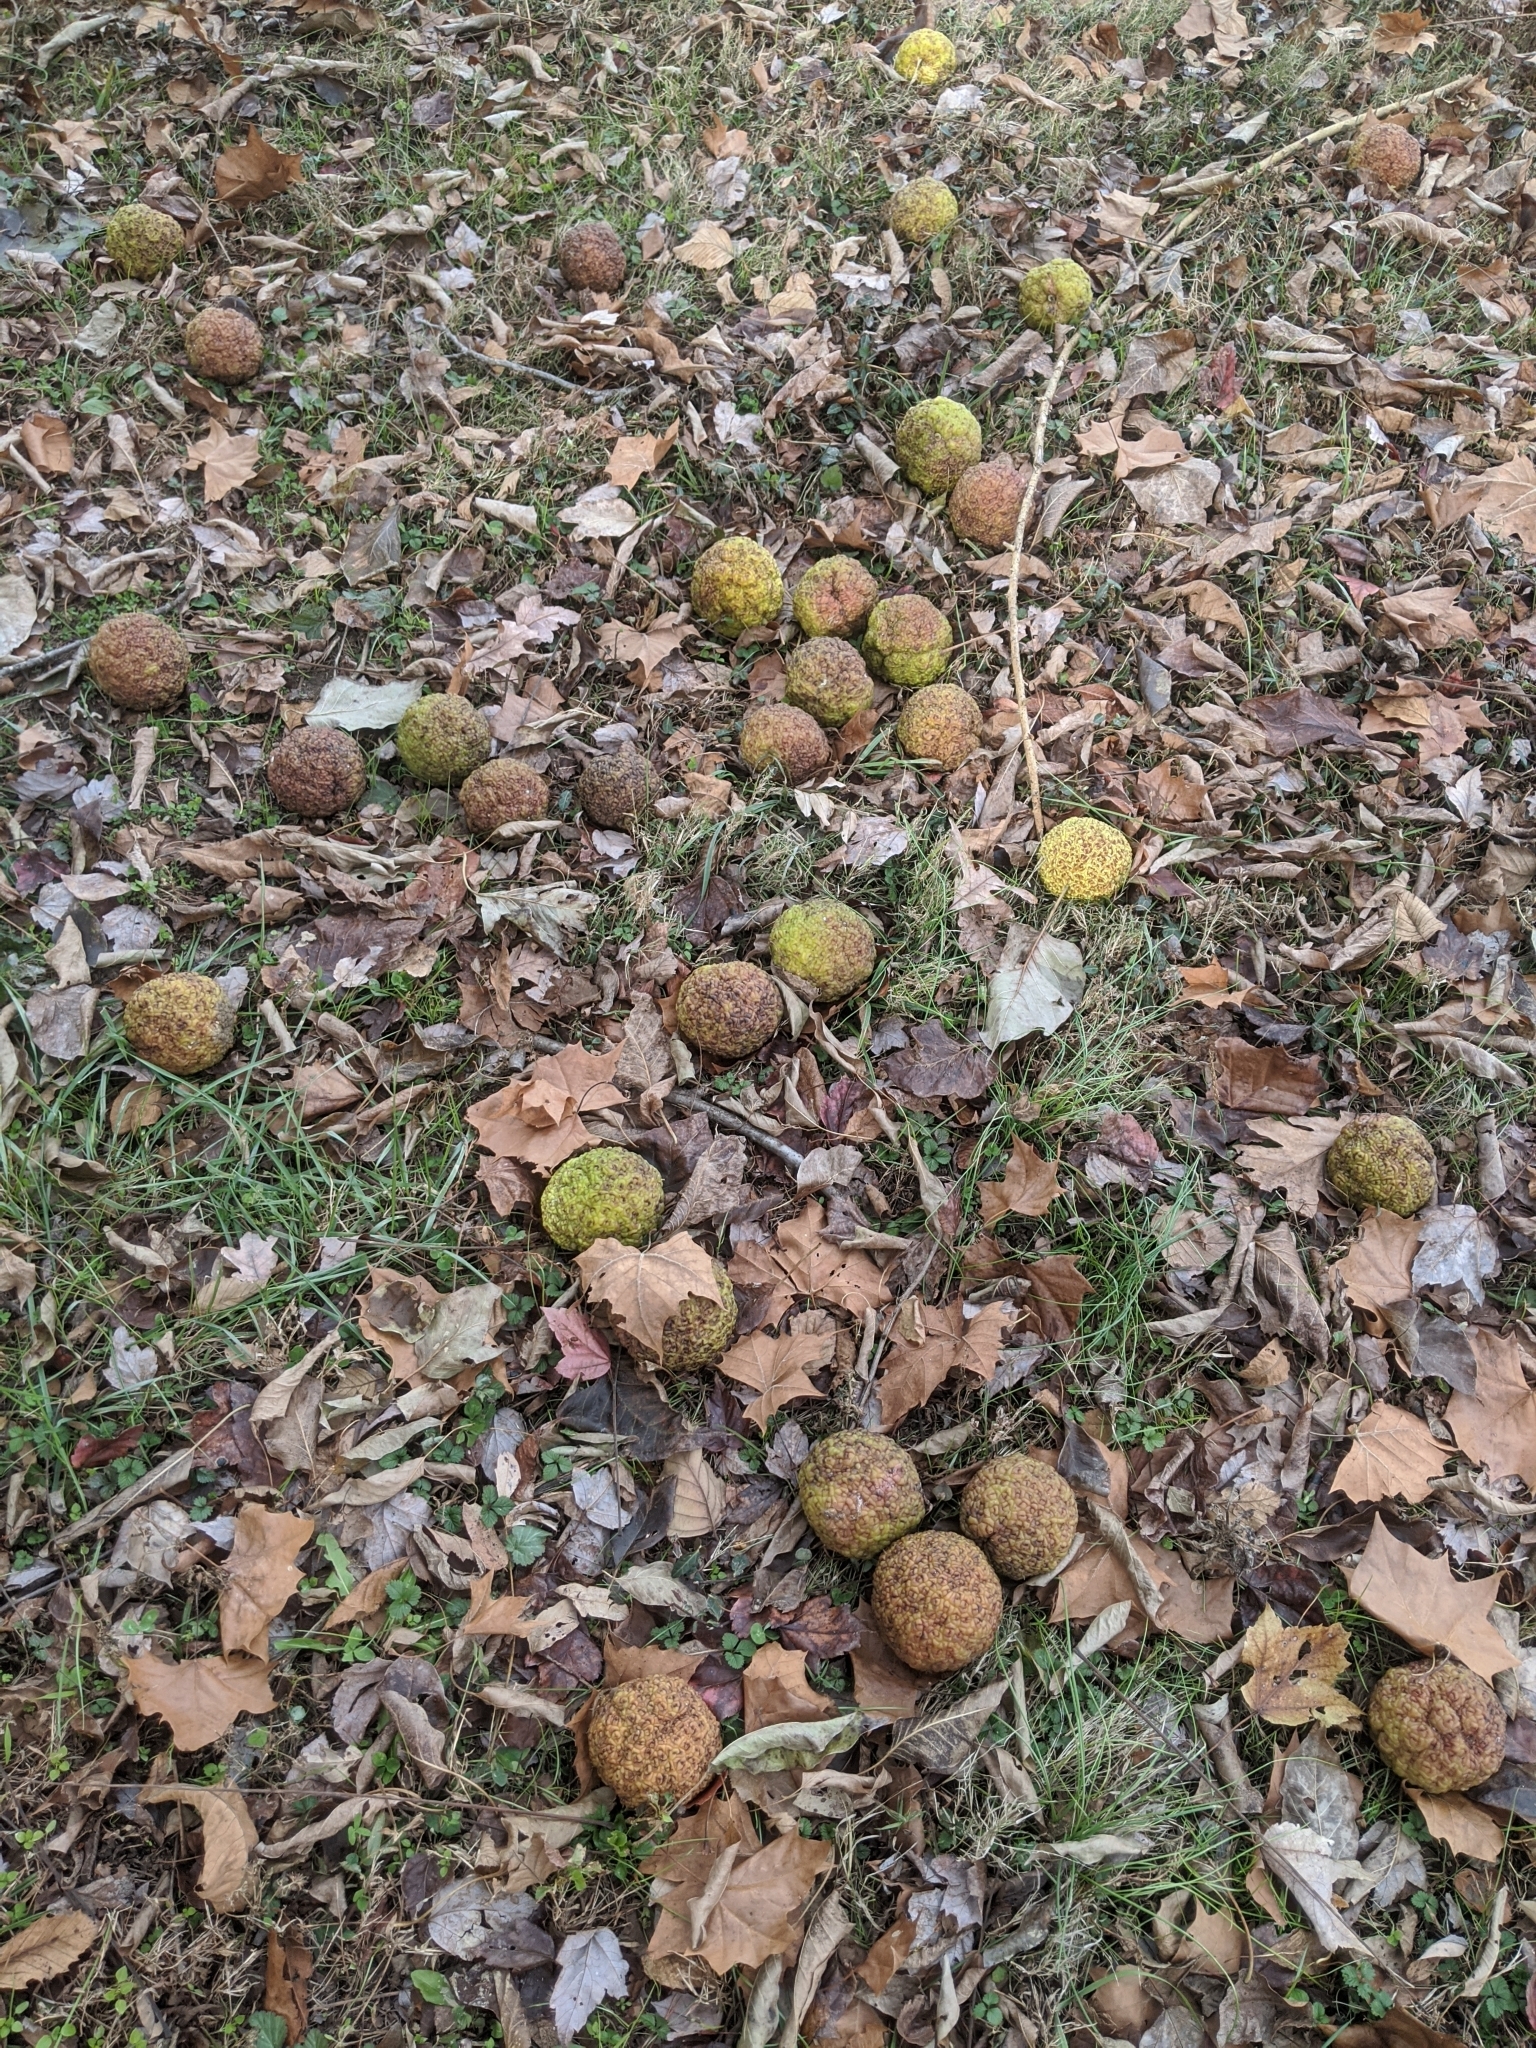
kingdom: Plantae
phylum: Tracheophyta
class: Magnoliopsida
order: Rosales
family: Moraceae
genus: Maclura
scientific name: Maclura pomifera
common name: Osage-orange
